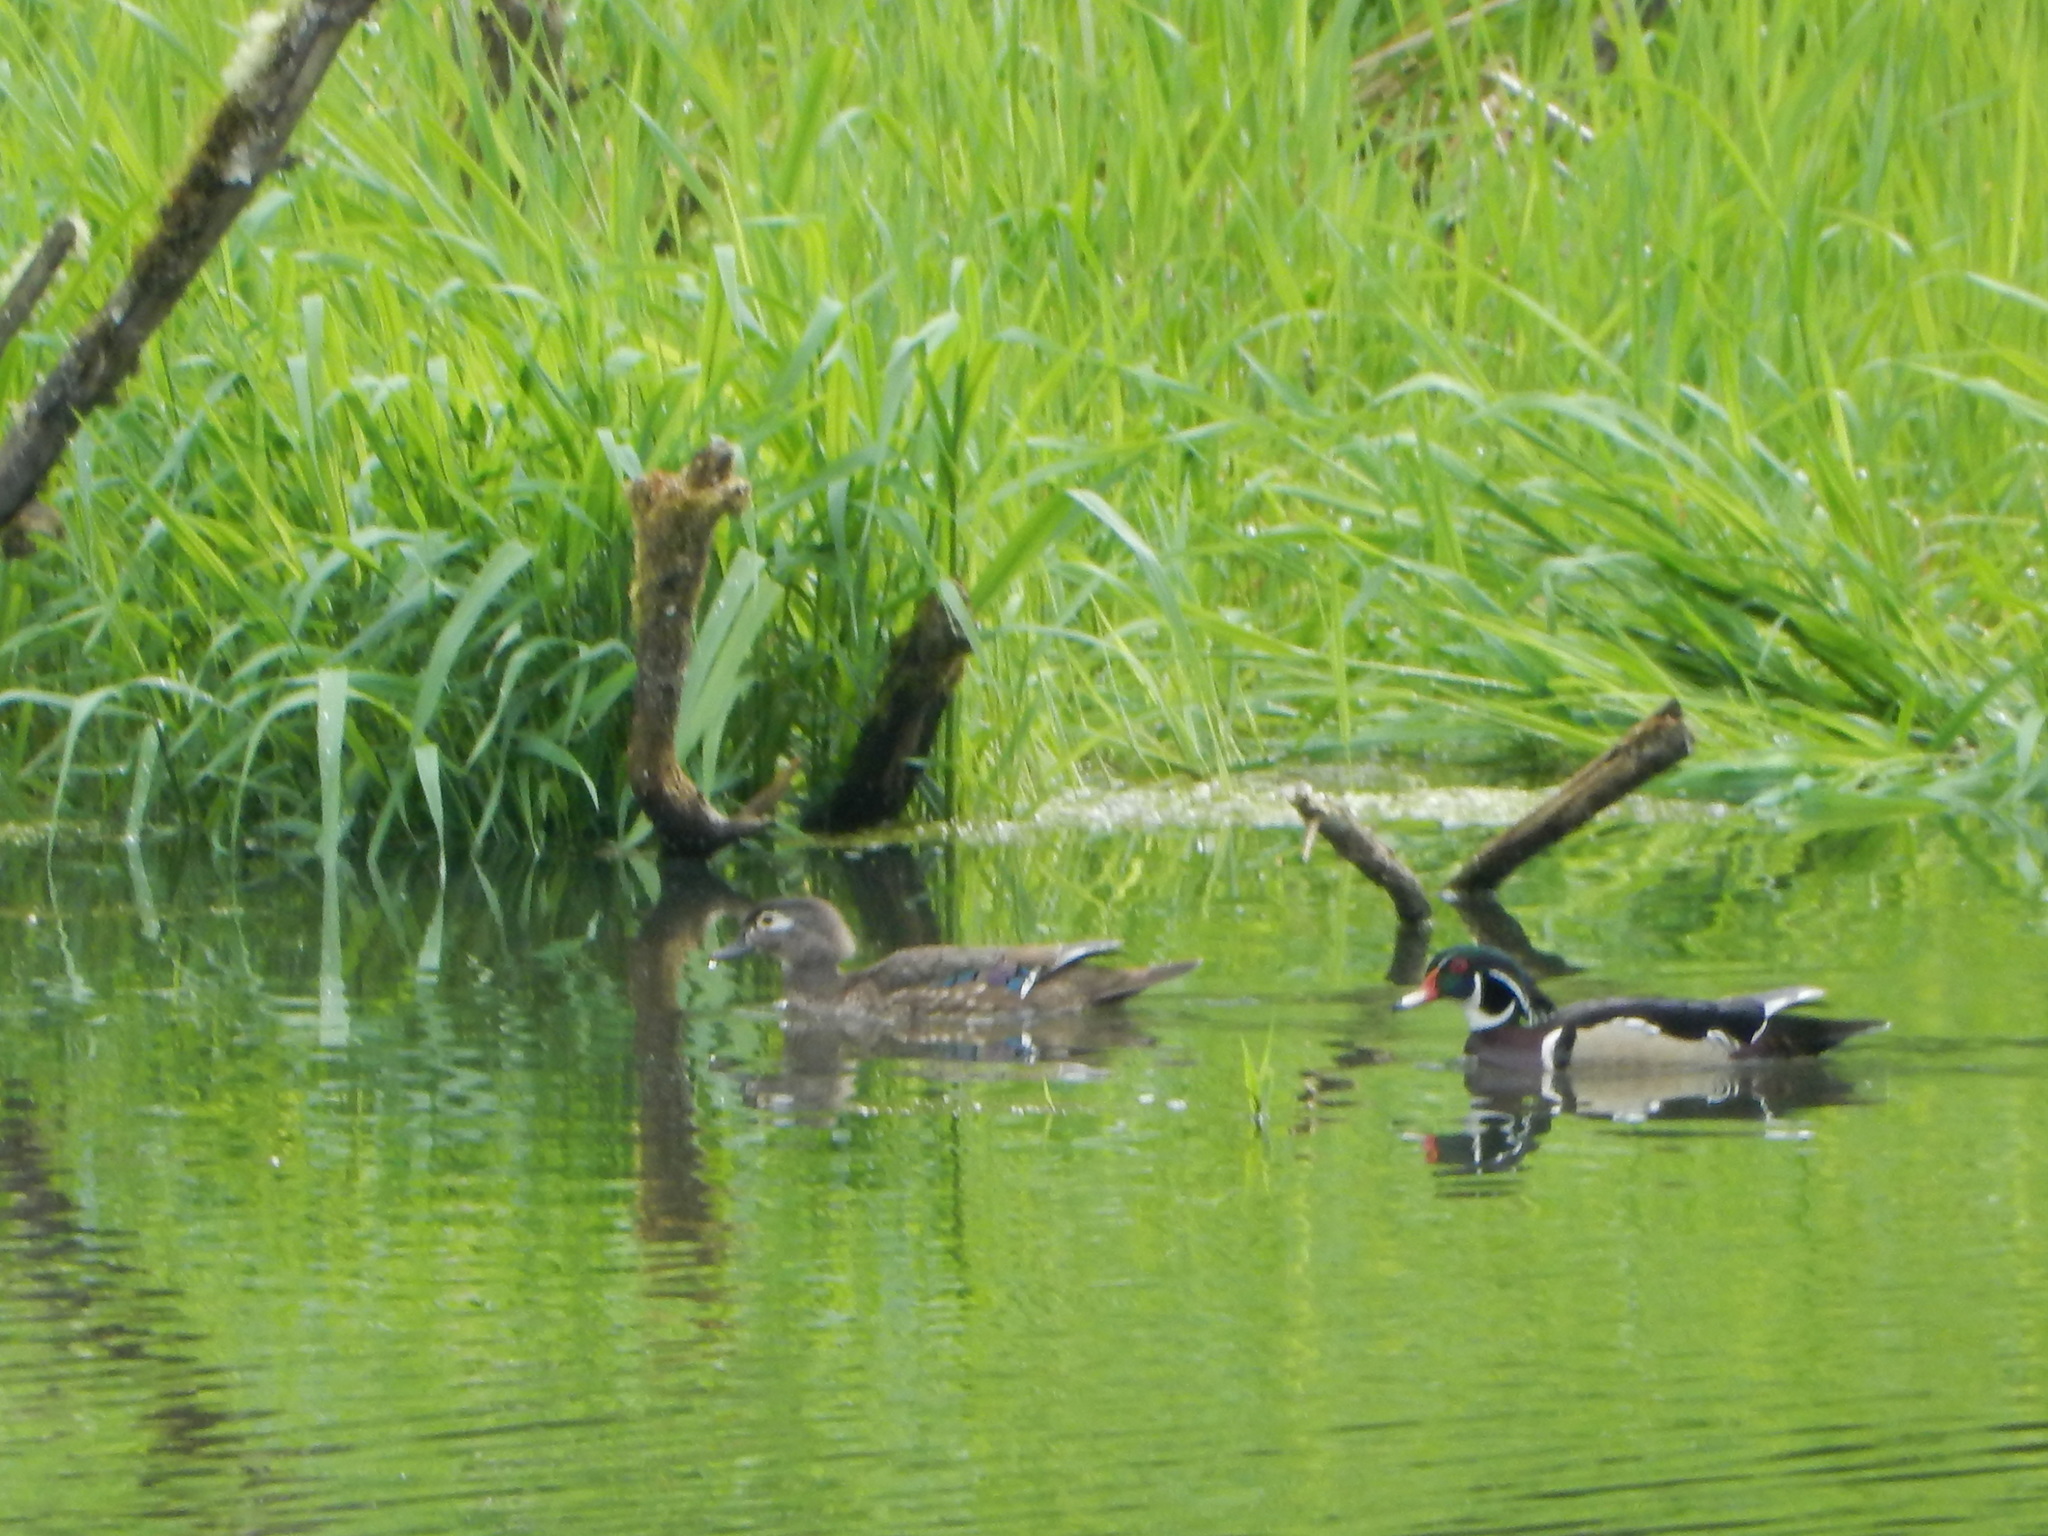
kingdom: Animalia
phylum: Chordata
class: Aves
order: Anseriformes
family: Anatidae
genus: Aix
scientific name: Aix sponsa
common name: Wood duck
